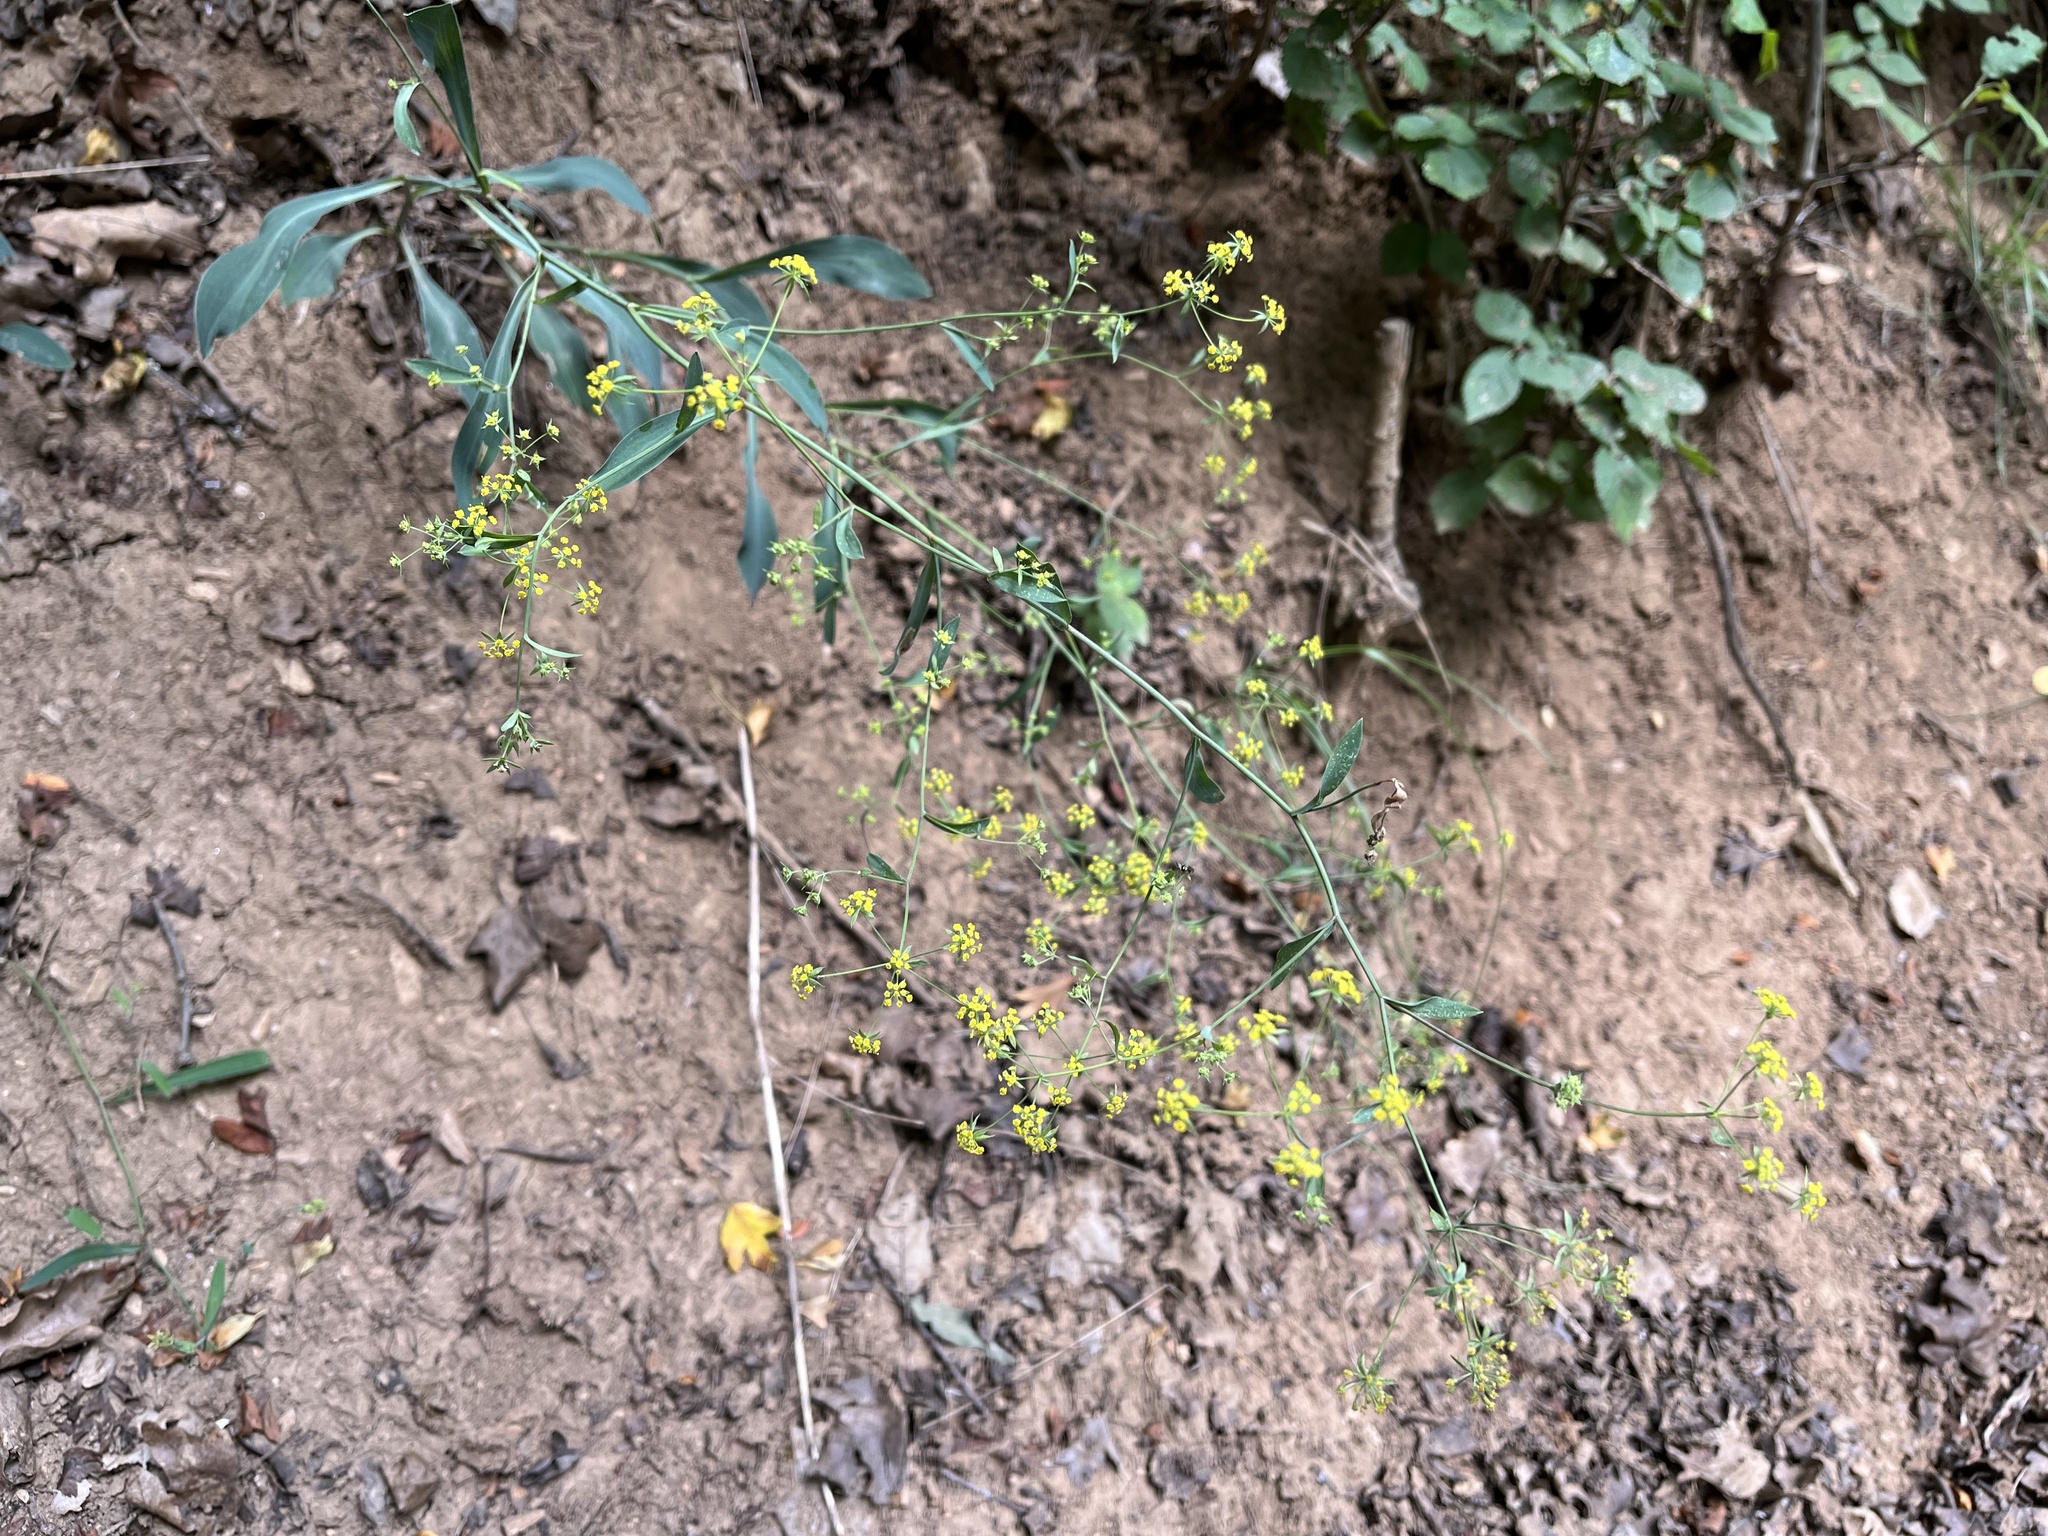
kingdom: Plantae
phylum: Tracheophyta
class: Magnoliopsida
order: Apiales
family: Apiaceae
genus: Bupleurum
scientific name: Bupleurum falcatum
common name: Sickle-leaved hare's-ear
